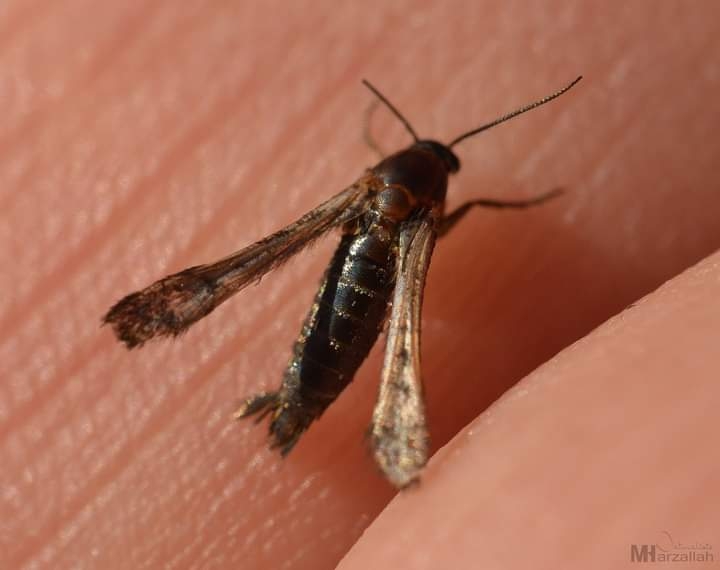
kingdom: Animalia
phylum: Arthropoda
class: Insecta
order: Lepidoptera
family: Sesiidae
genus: Microsphecia
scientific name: Microsphecia tineiformis
